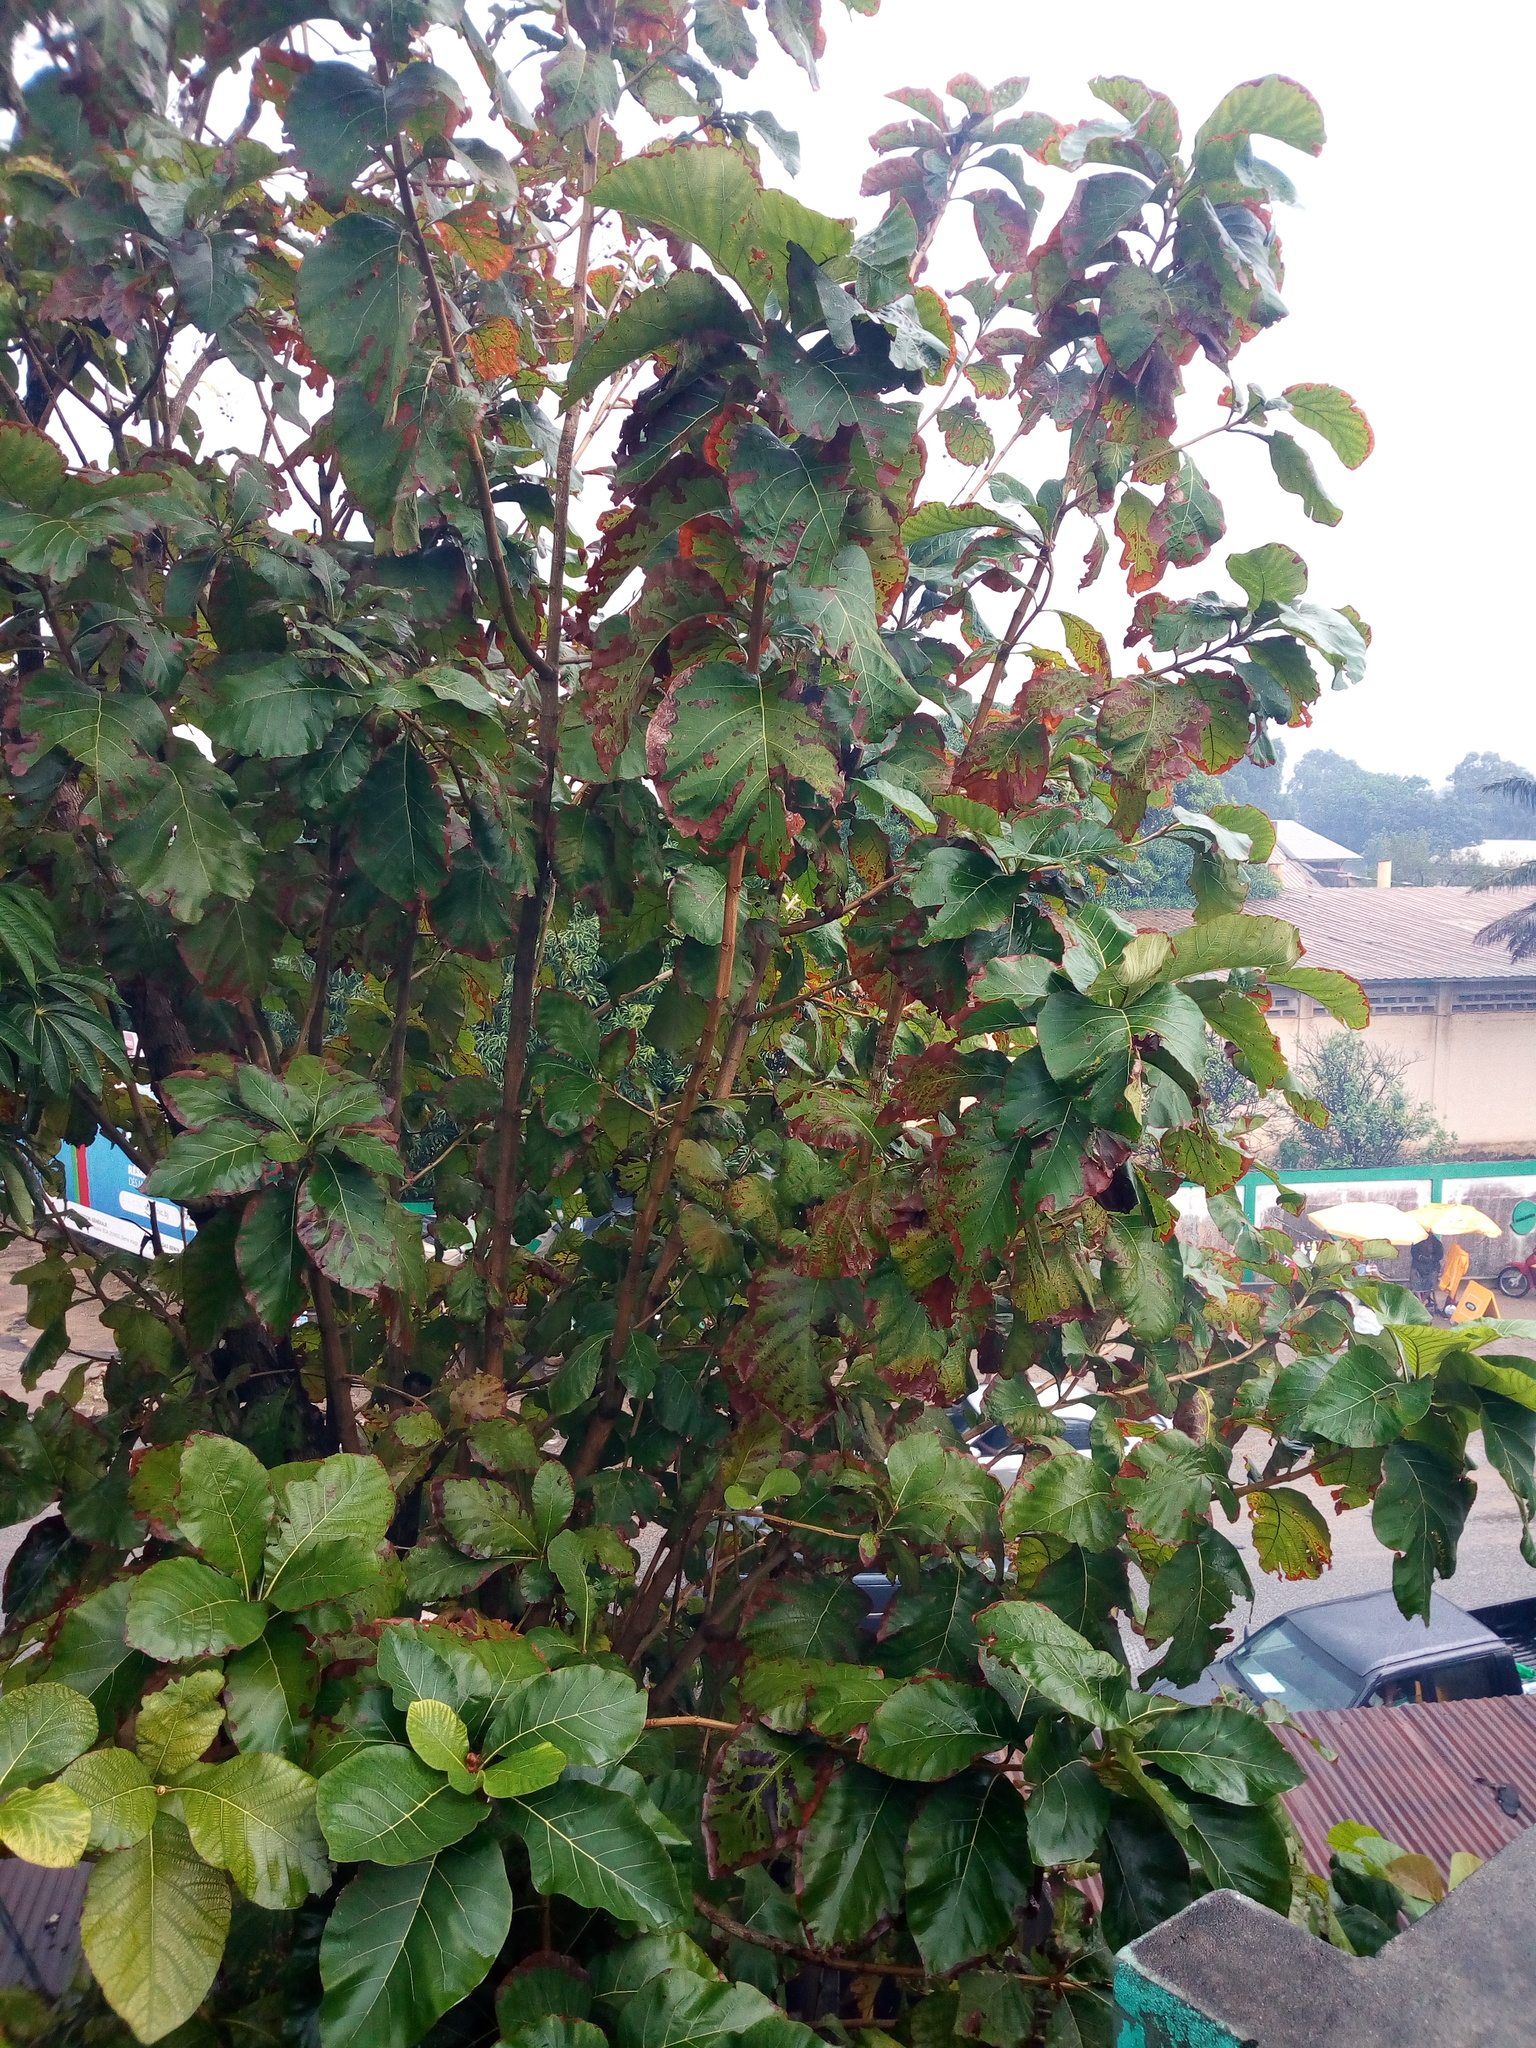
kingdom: Plantae
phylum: Tracheophyta
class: Magnoliopsida
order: Lamiales
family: Lamiaceae
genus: Tectona
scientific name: Tectona grandis
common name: Teak
